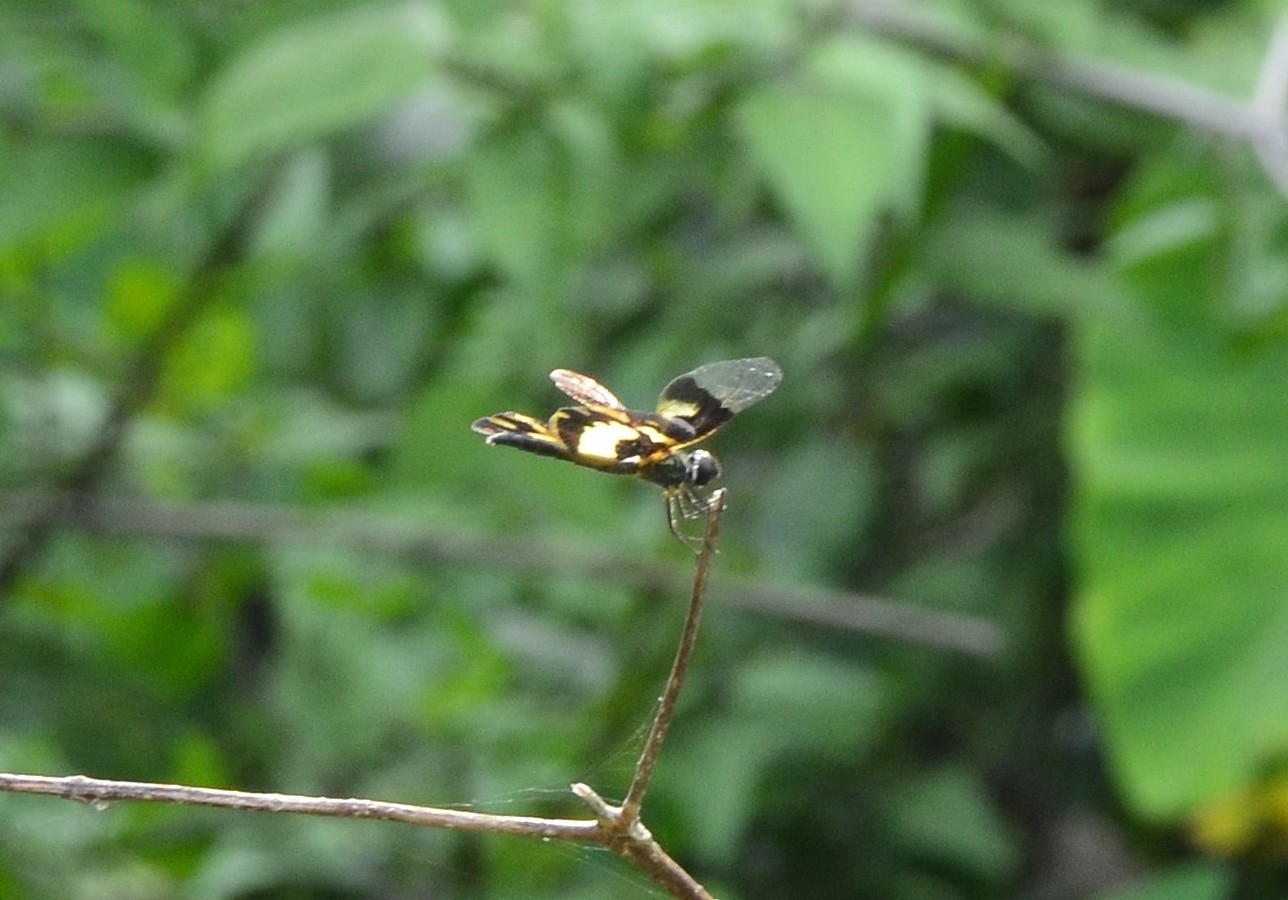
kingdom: Animalia
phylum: Arthropoda
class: Insecta
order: Odonata
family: Libellulidae
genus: Rhyothemis
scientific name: Rhyothemis variegata
